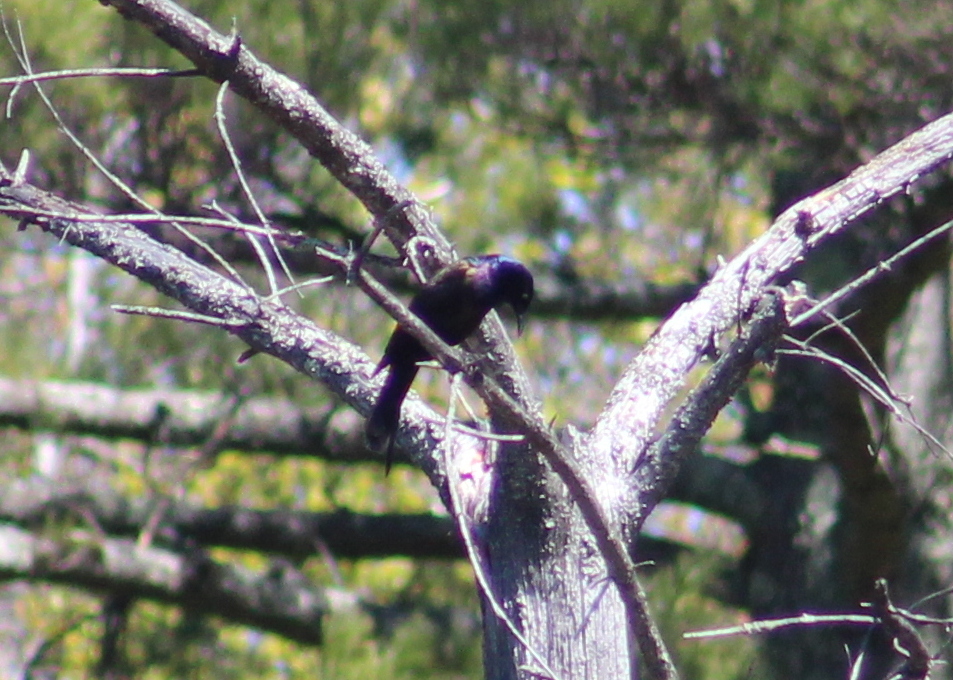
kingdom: Animalia
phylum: Chordata
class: Aves
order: Passeriformes
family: Icteridae
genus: Quiscalus
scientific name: Quiscalus quiscula
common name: Common grackle
